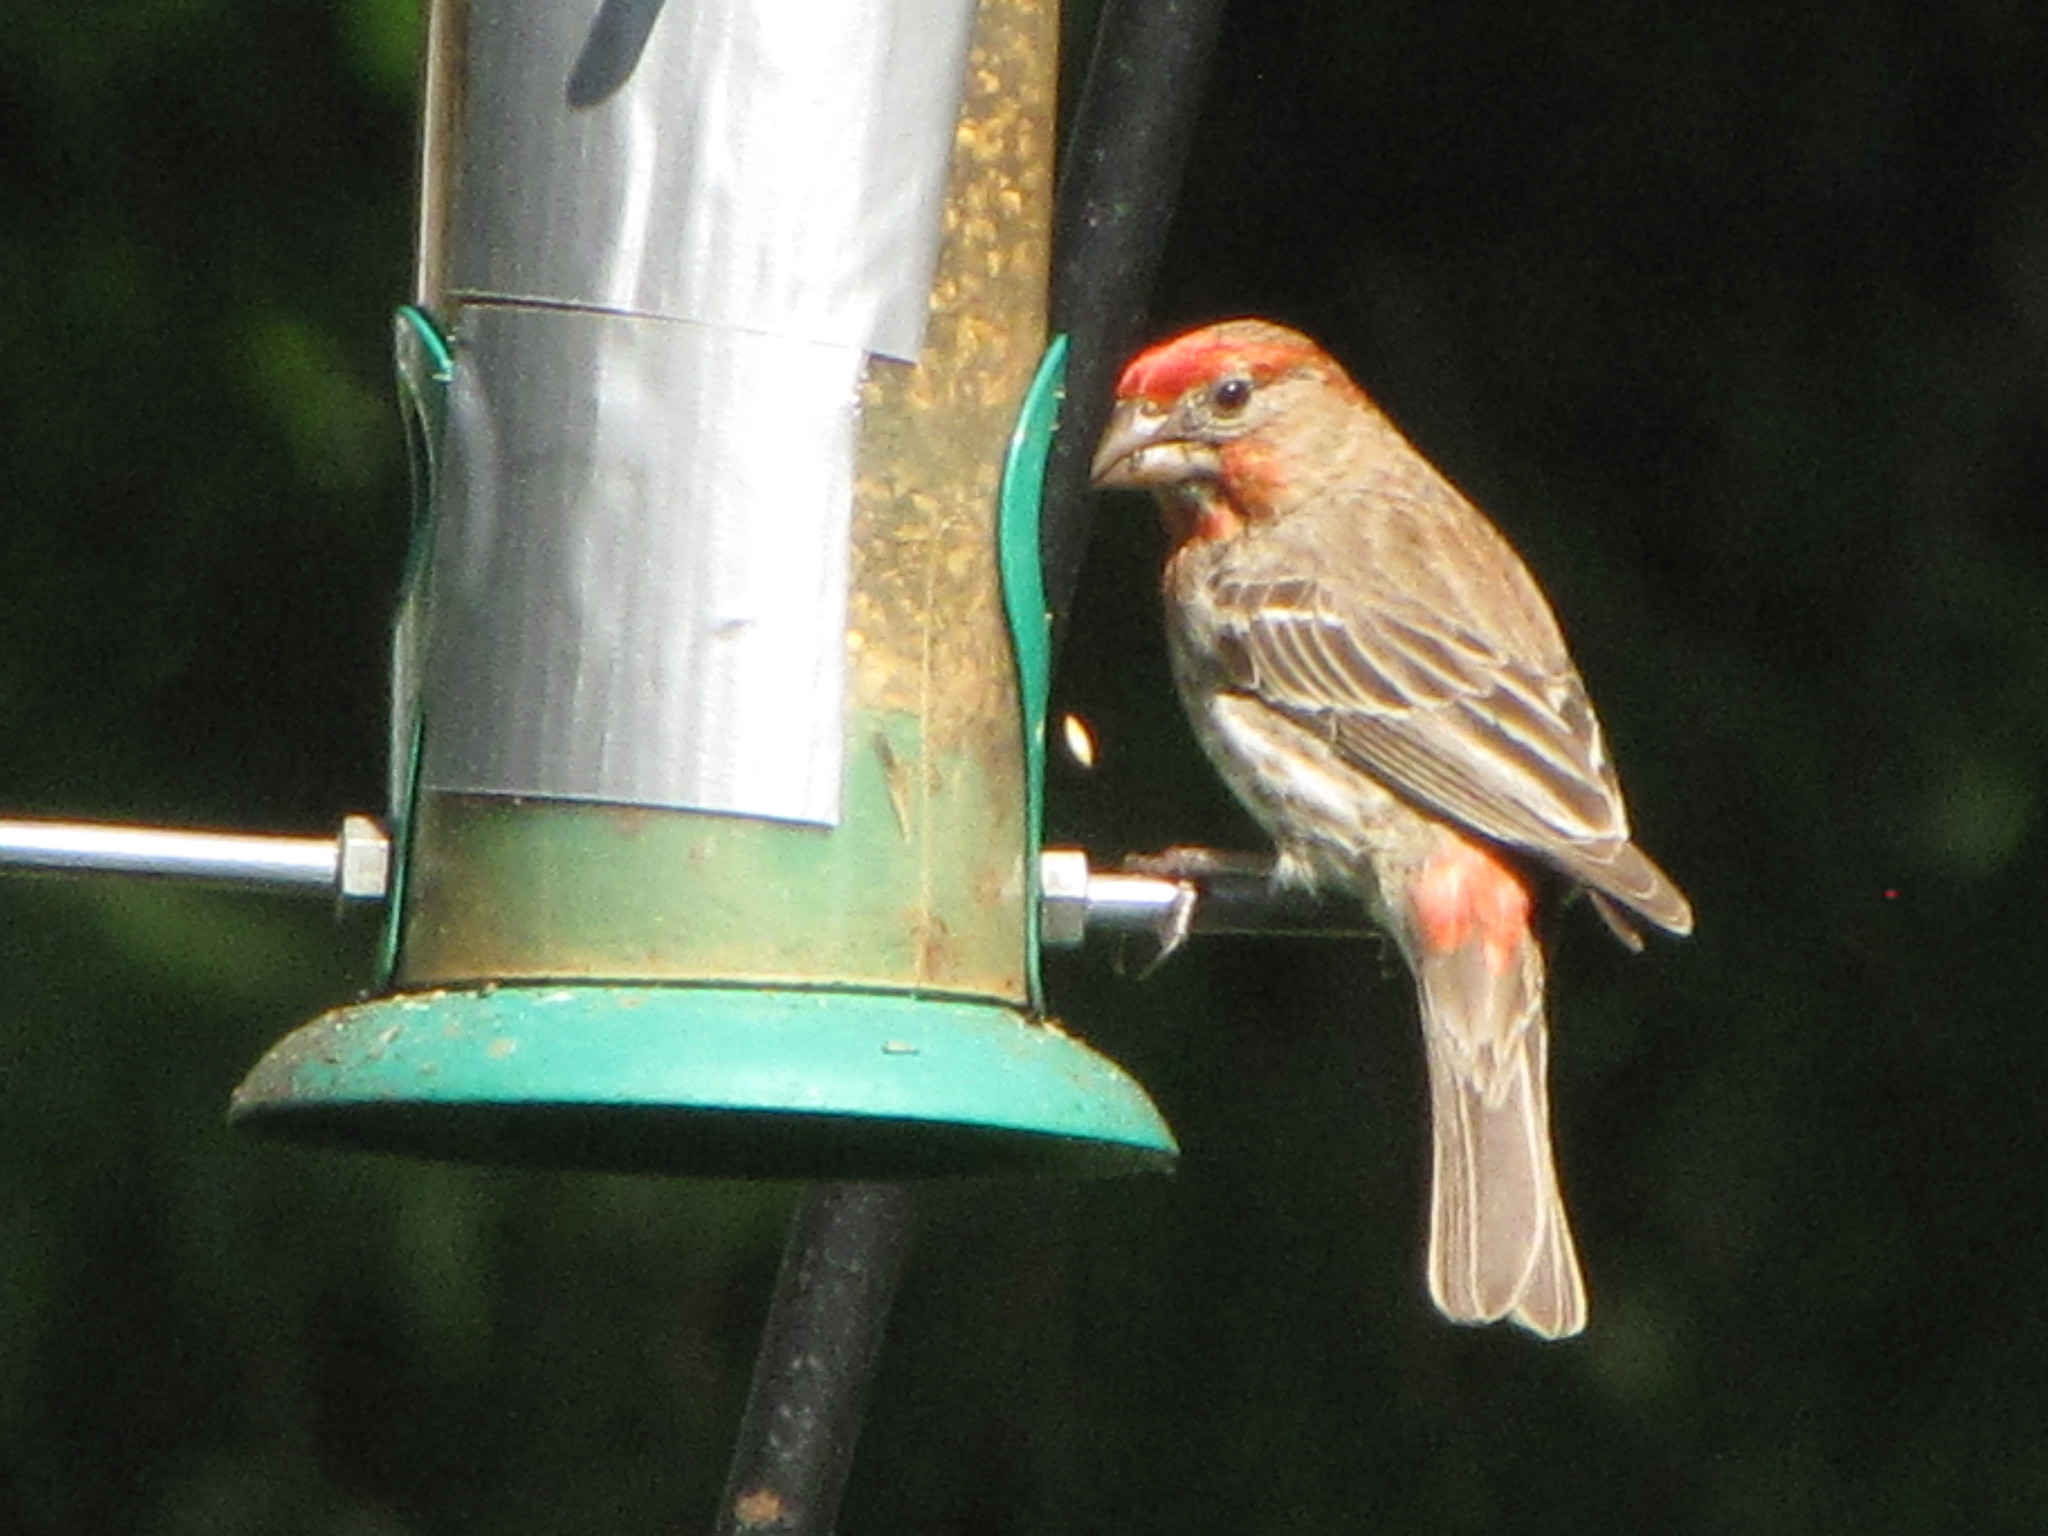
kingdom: Animalia
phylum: Chordata
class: Aves
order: Passeriformes
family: Fringillidae
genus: Haemorhous
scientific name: Haemorhous mexicanus
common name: House finch
